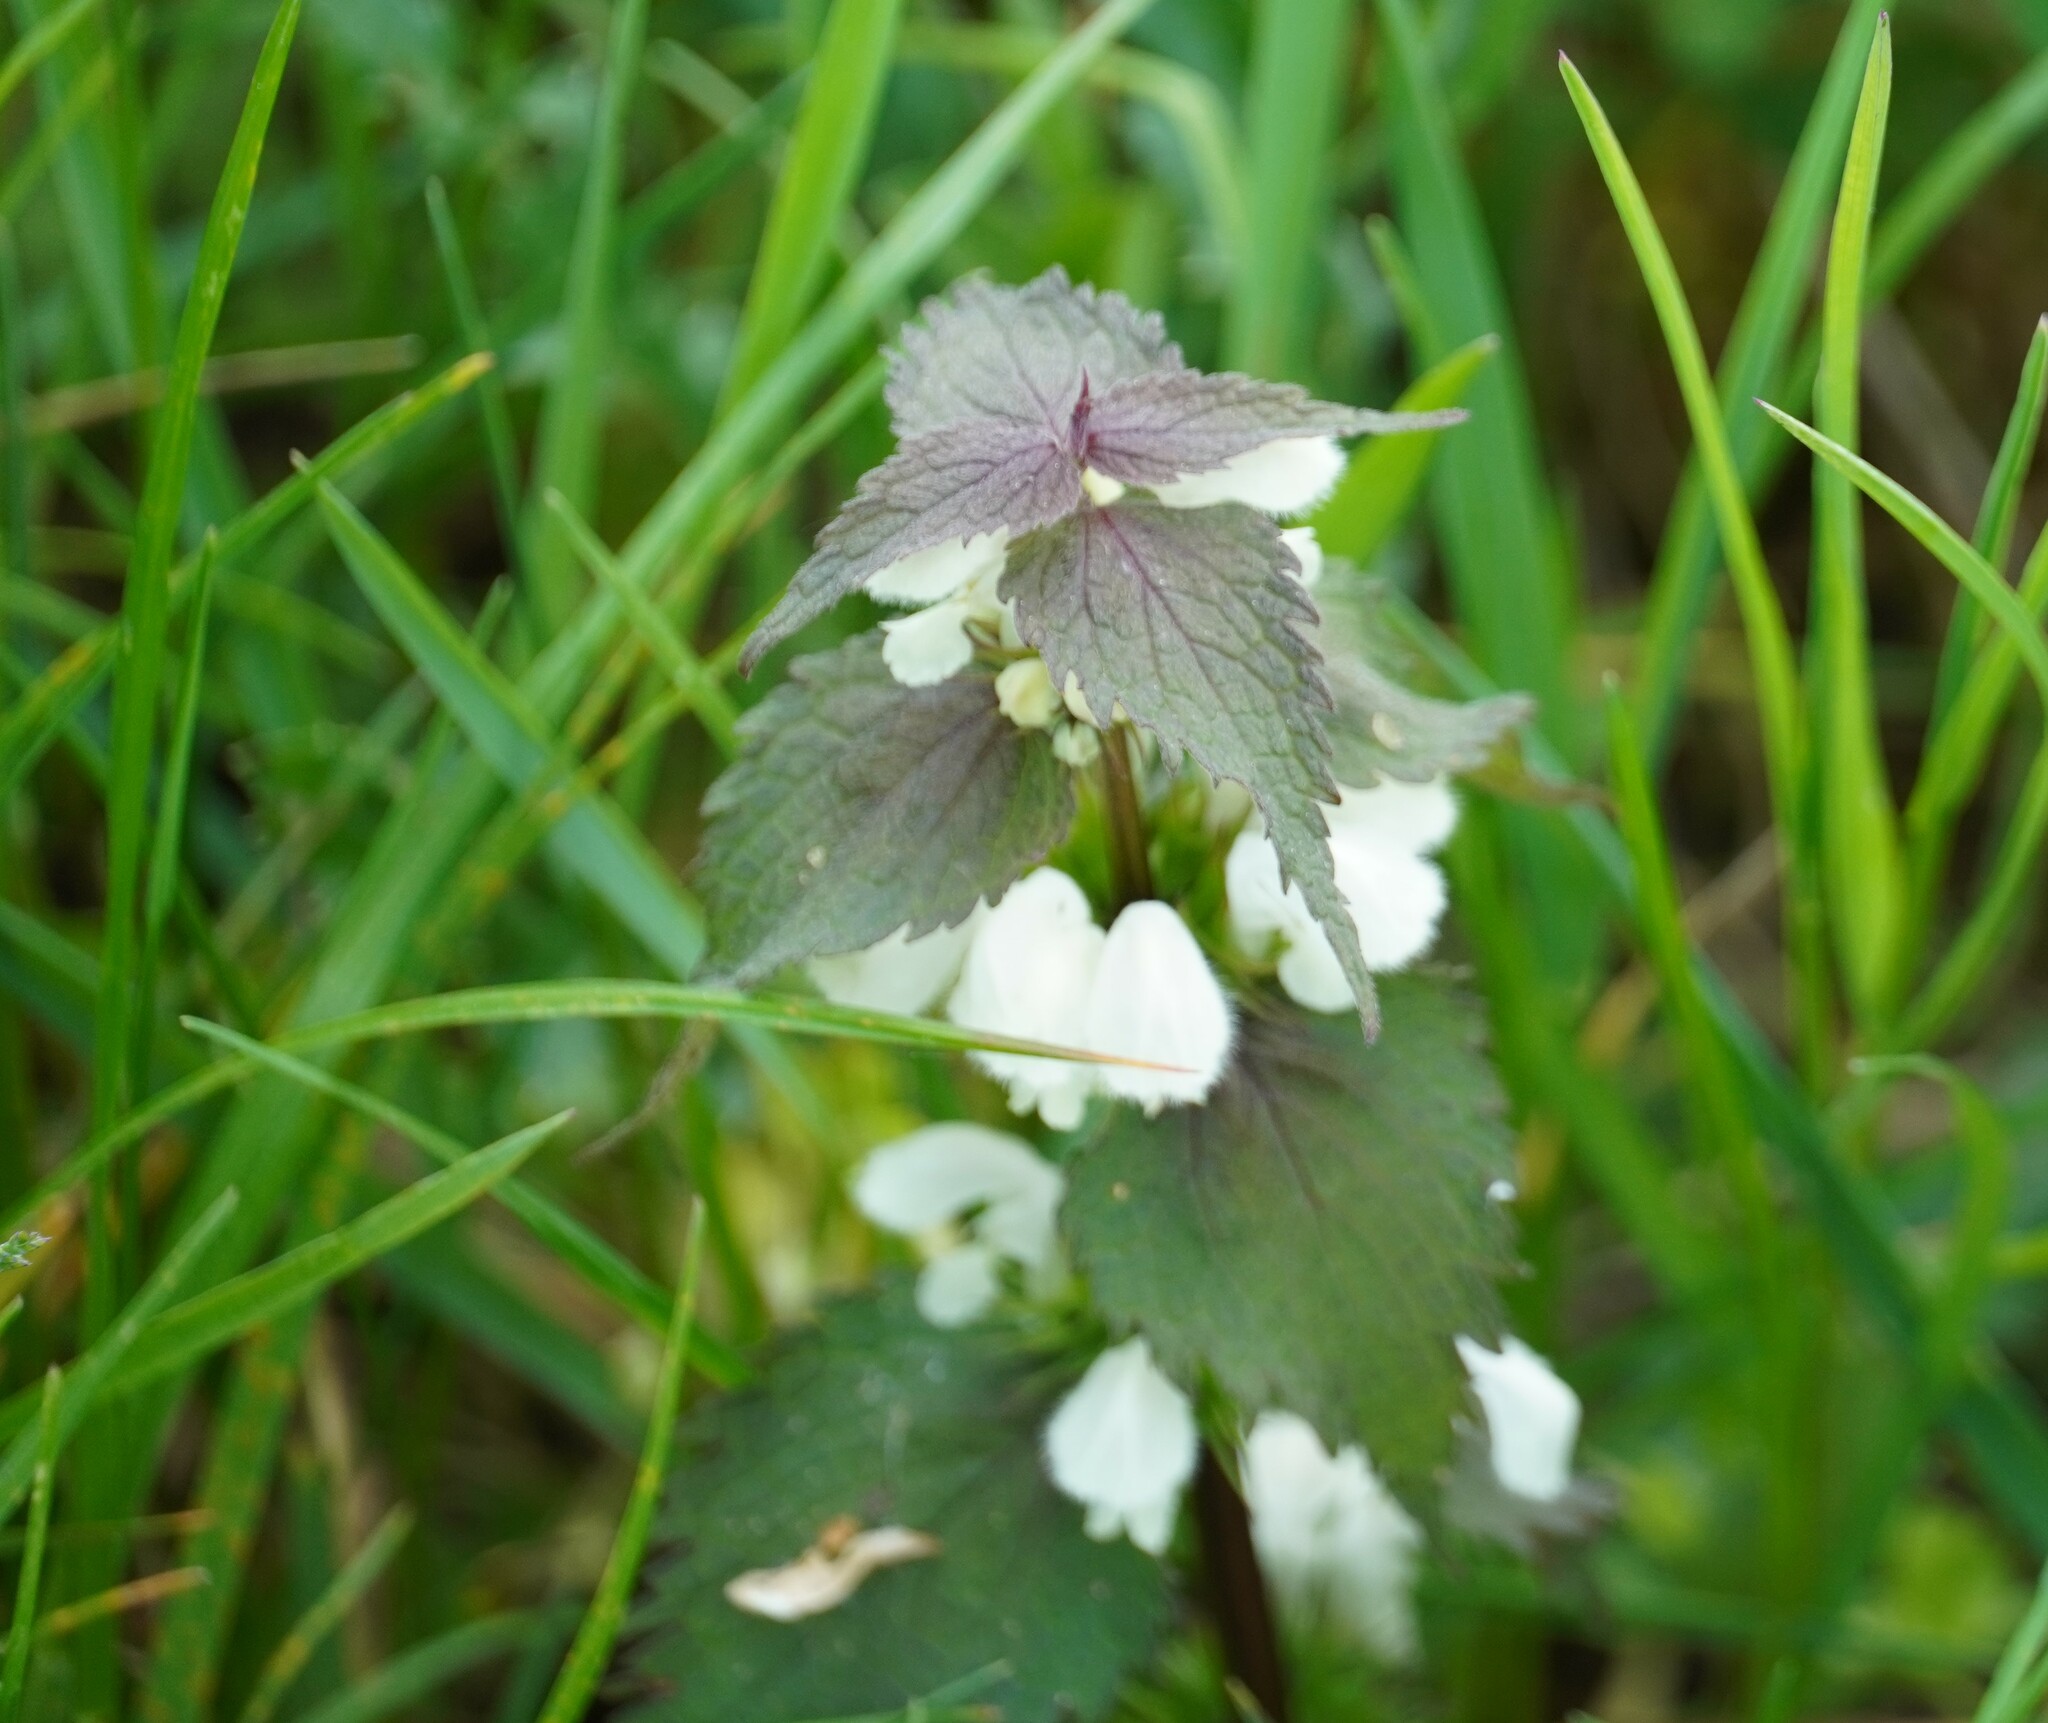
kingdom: Plantae
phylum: Tracheophyta
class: Magnoliopsida
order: Lamiales
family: Lamiaceae
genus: Lamium
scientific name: Lamium album
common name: White dead-nettle
